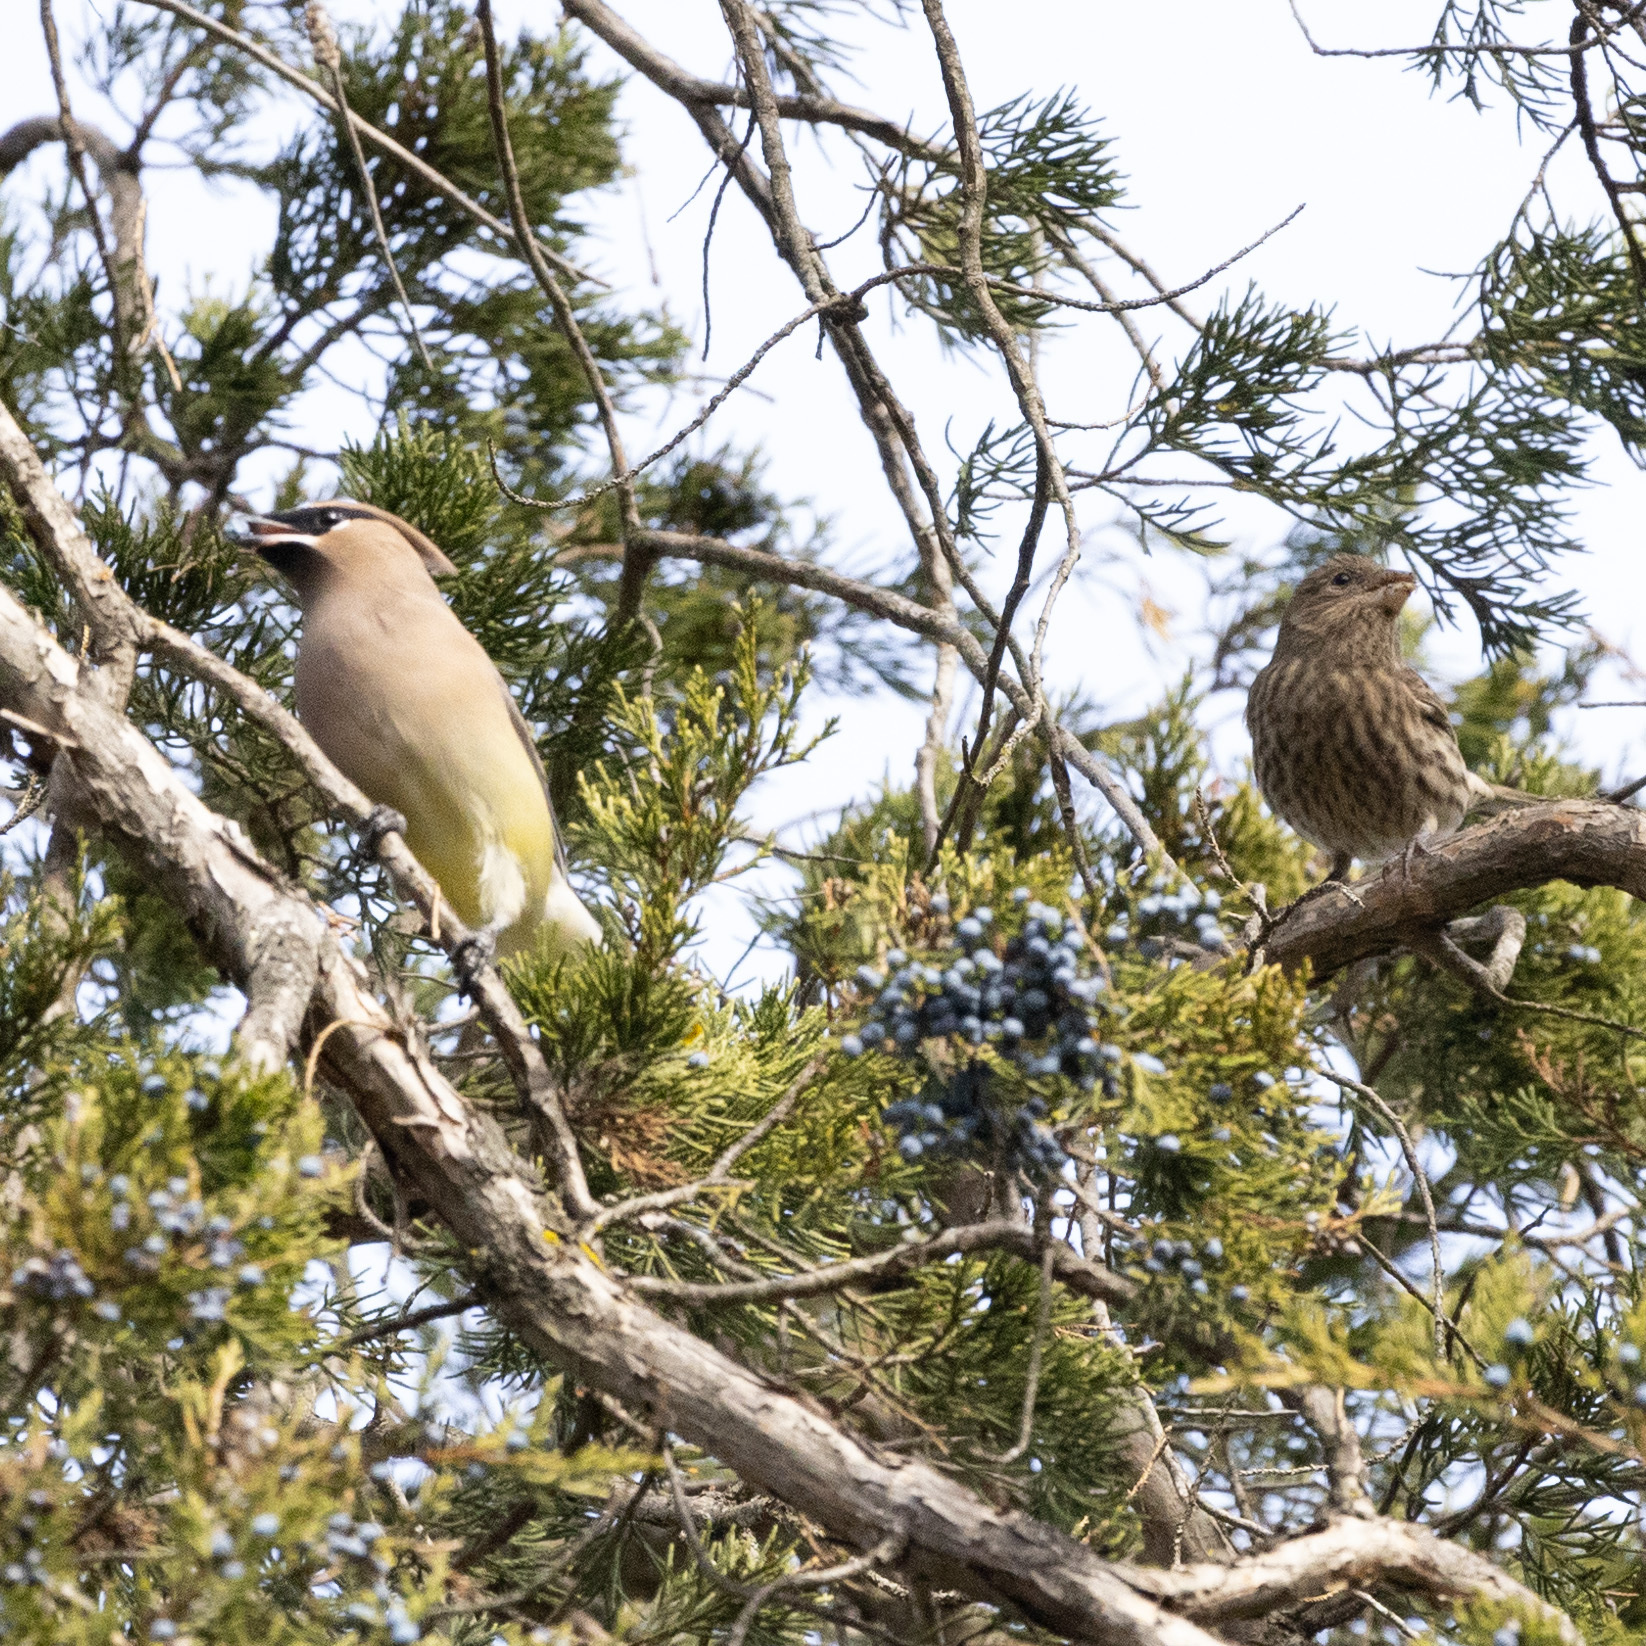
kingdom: Animalia
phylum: Chordata
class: Aves
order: Passeriformes
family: Bombycillidae
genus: Bombycilla
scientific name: Bombycilla cedrorum
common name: Cedar waxwing
